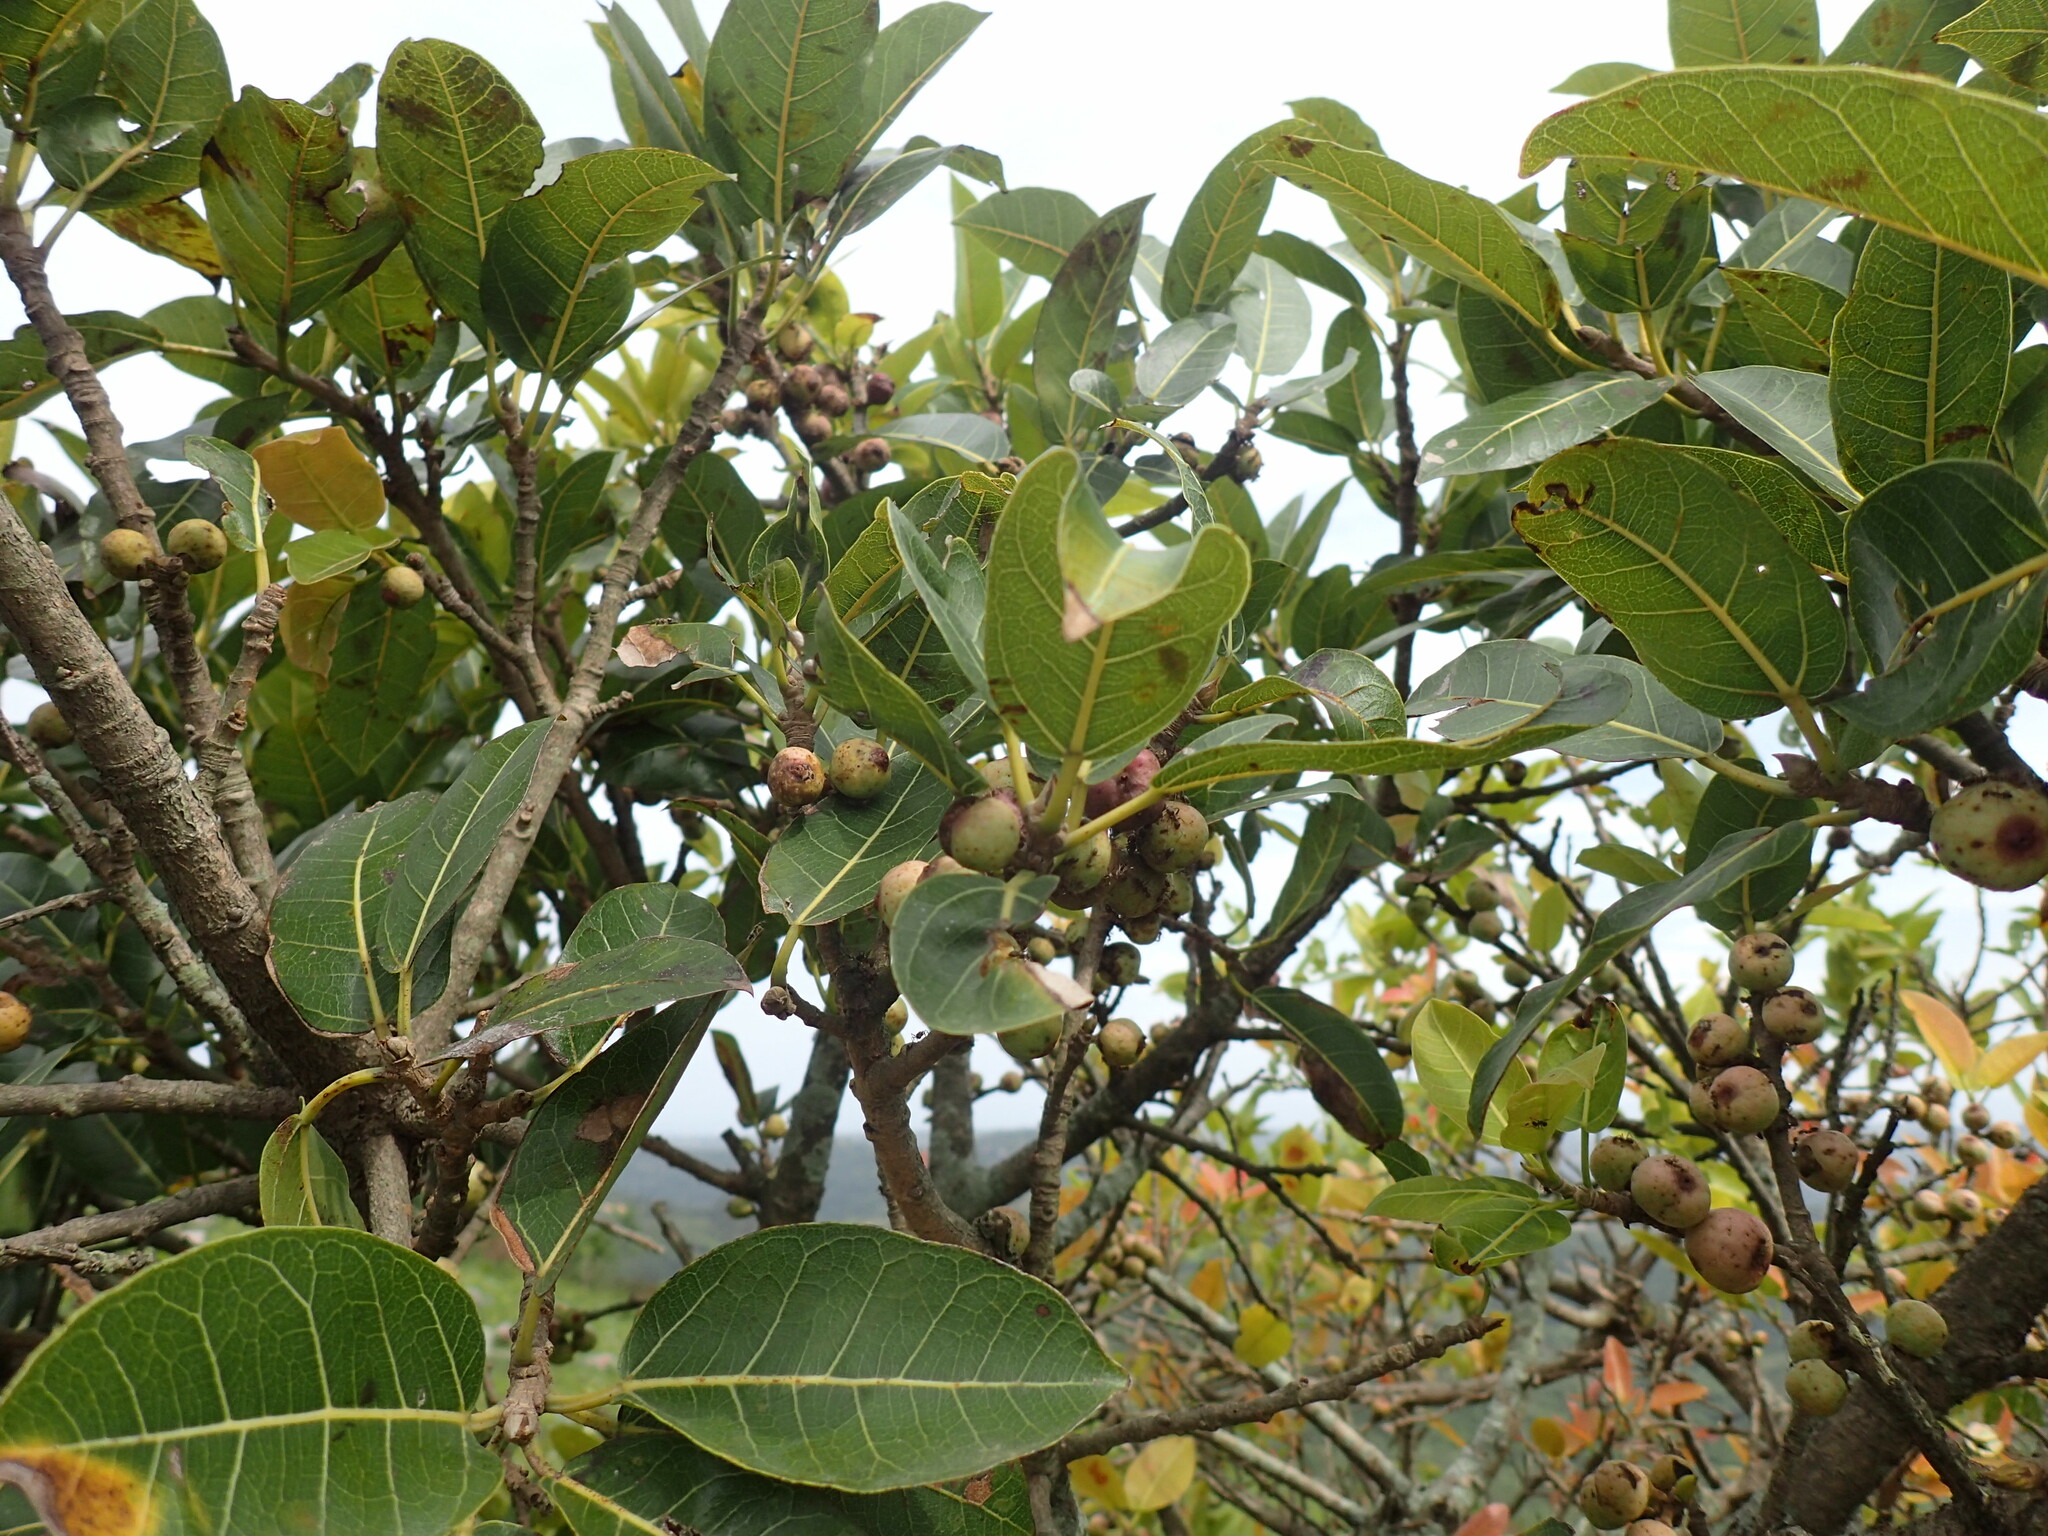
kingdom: Plantae
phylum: Tracheophyta
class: Magnoliopsida
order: Rosales
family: Moraceae
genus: Ficus
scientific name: Ficus ingens
